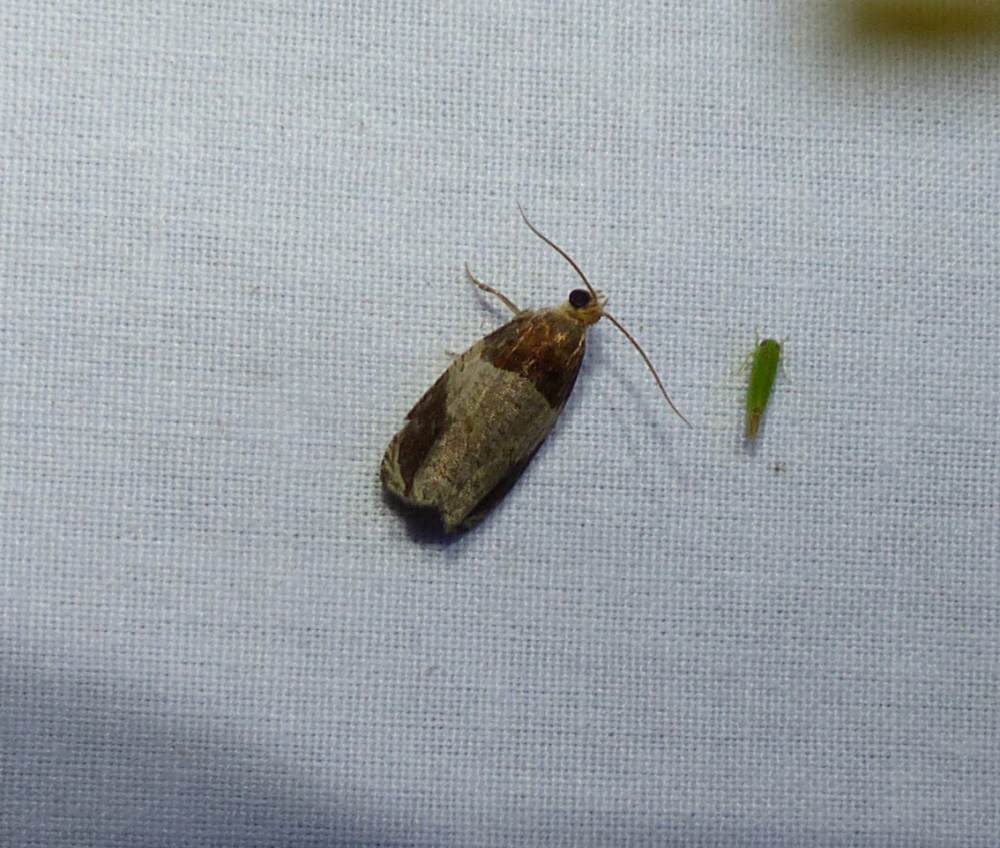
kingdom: Animalia
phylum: Arthropoda
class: Insecta
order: Lepidoptera
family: Tortricidae
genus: Olethreutes
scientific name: Olethreutes ferriferana
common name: Hydrangea leaftier moth
